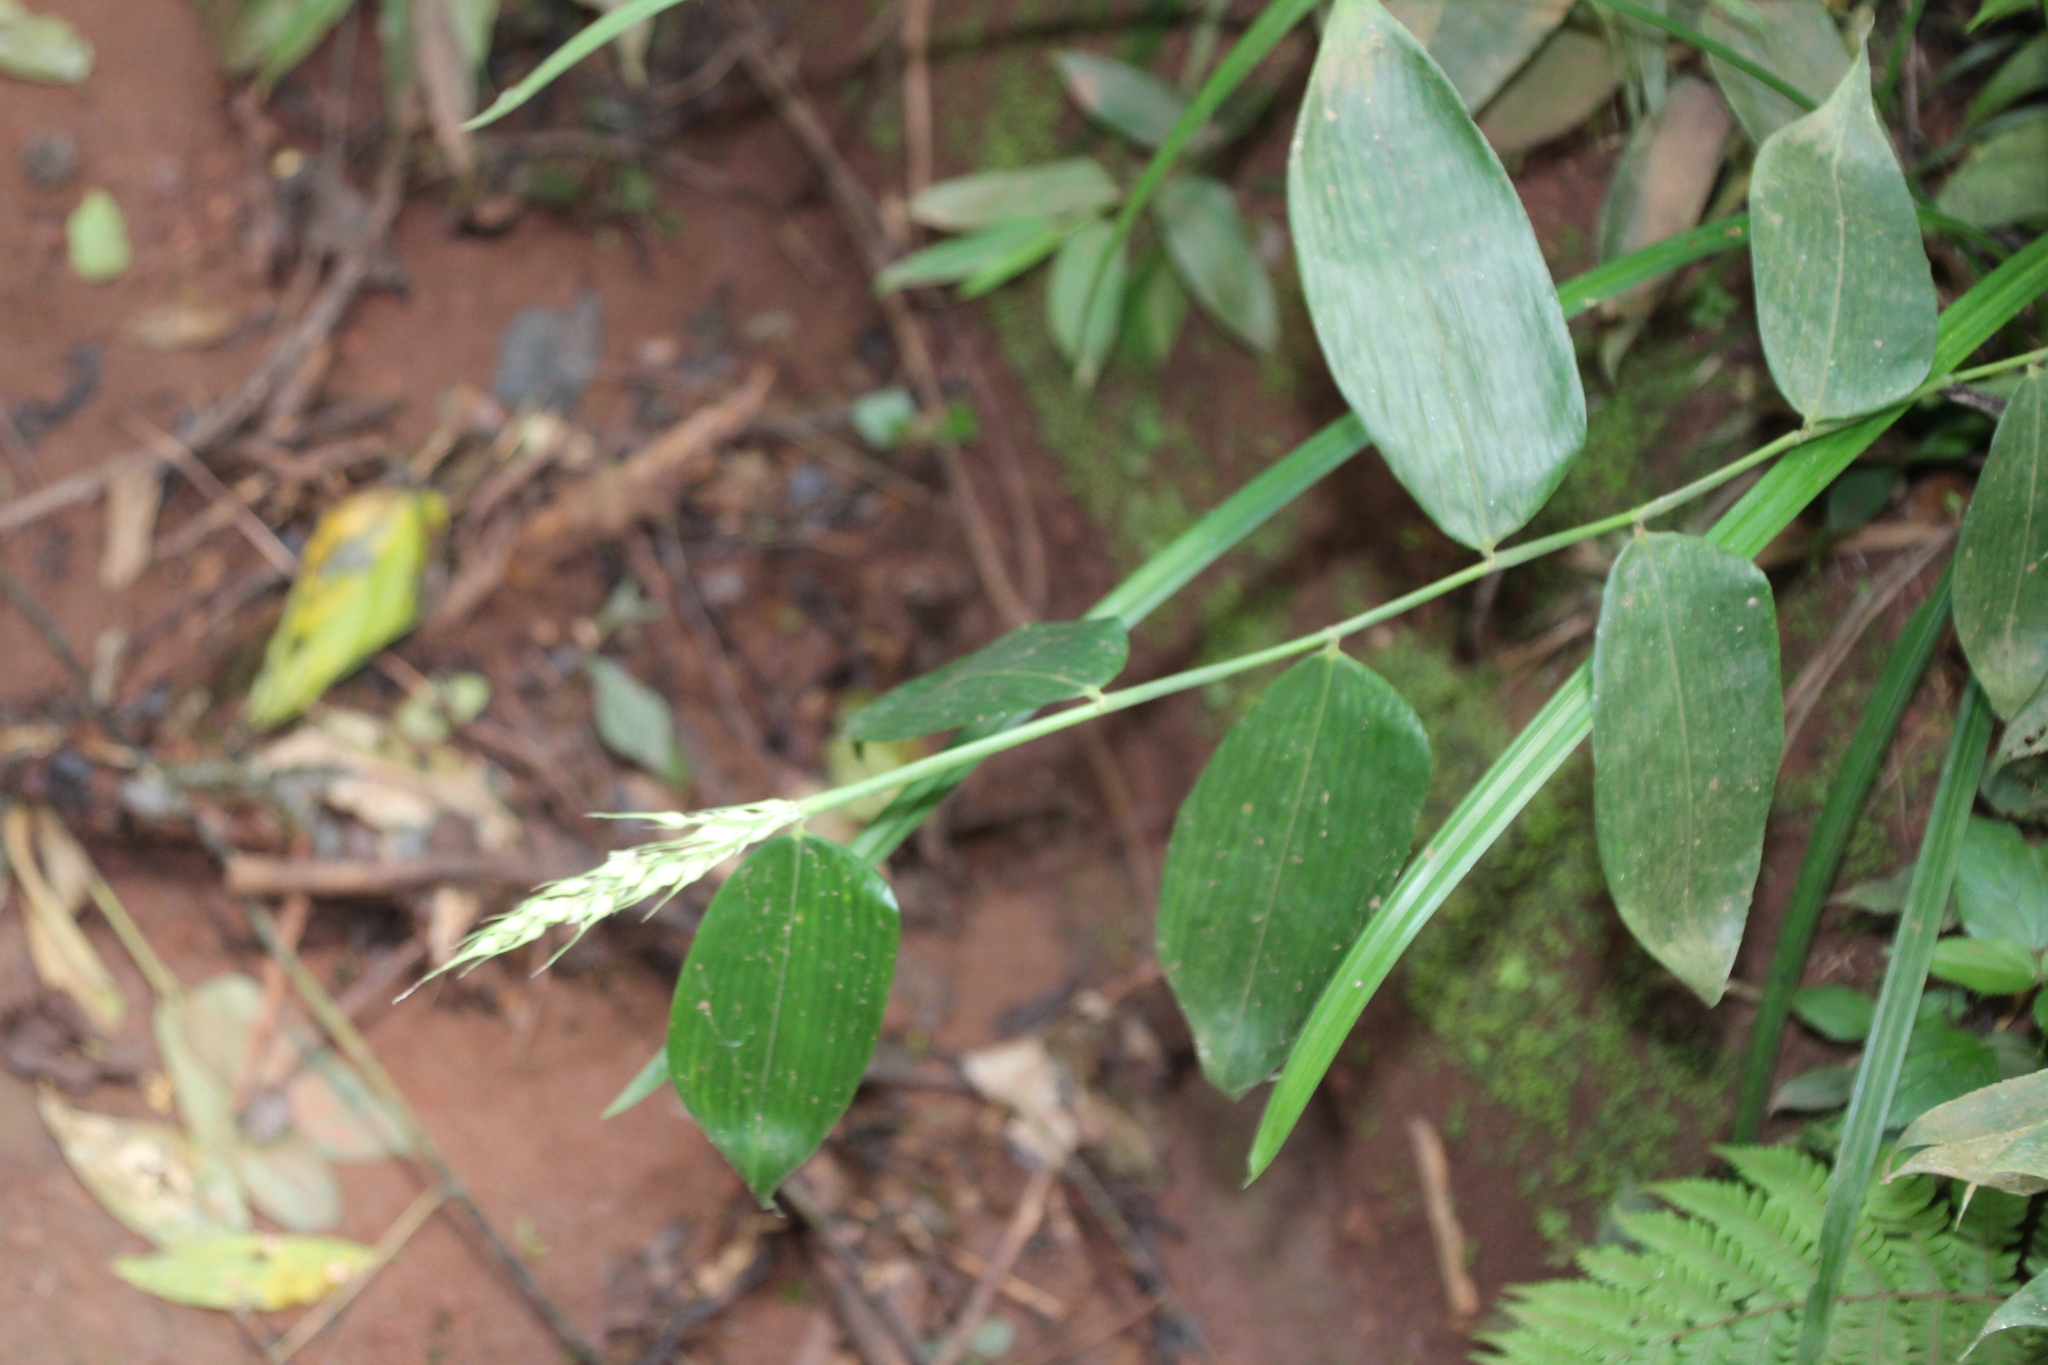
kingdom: Plantae
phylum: Tracheophyta
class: Liliopsida
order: Poales
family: Poaceae
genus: Olyra
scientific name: Olyra latifolia
